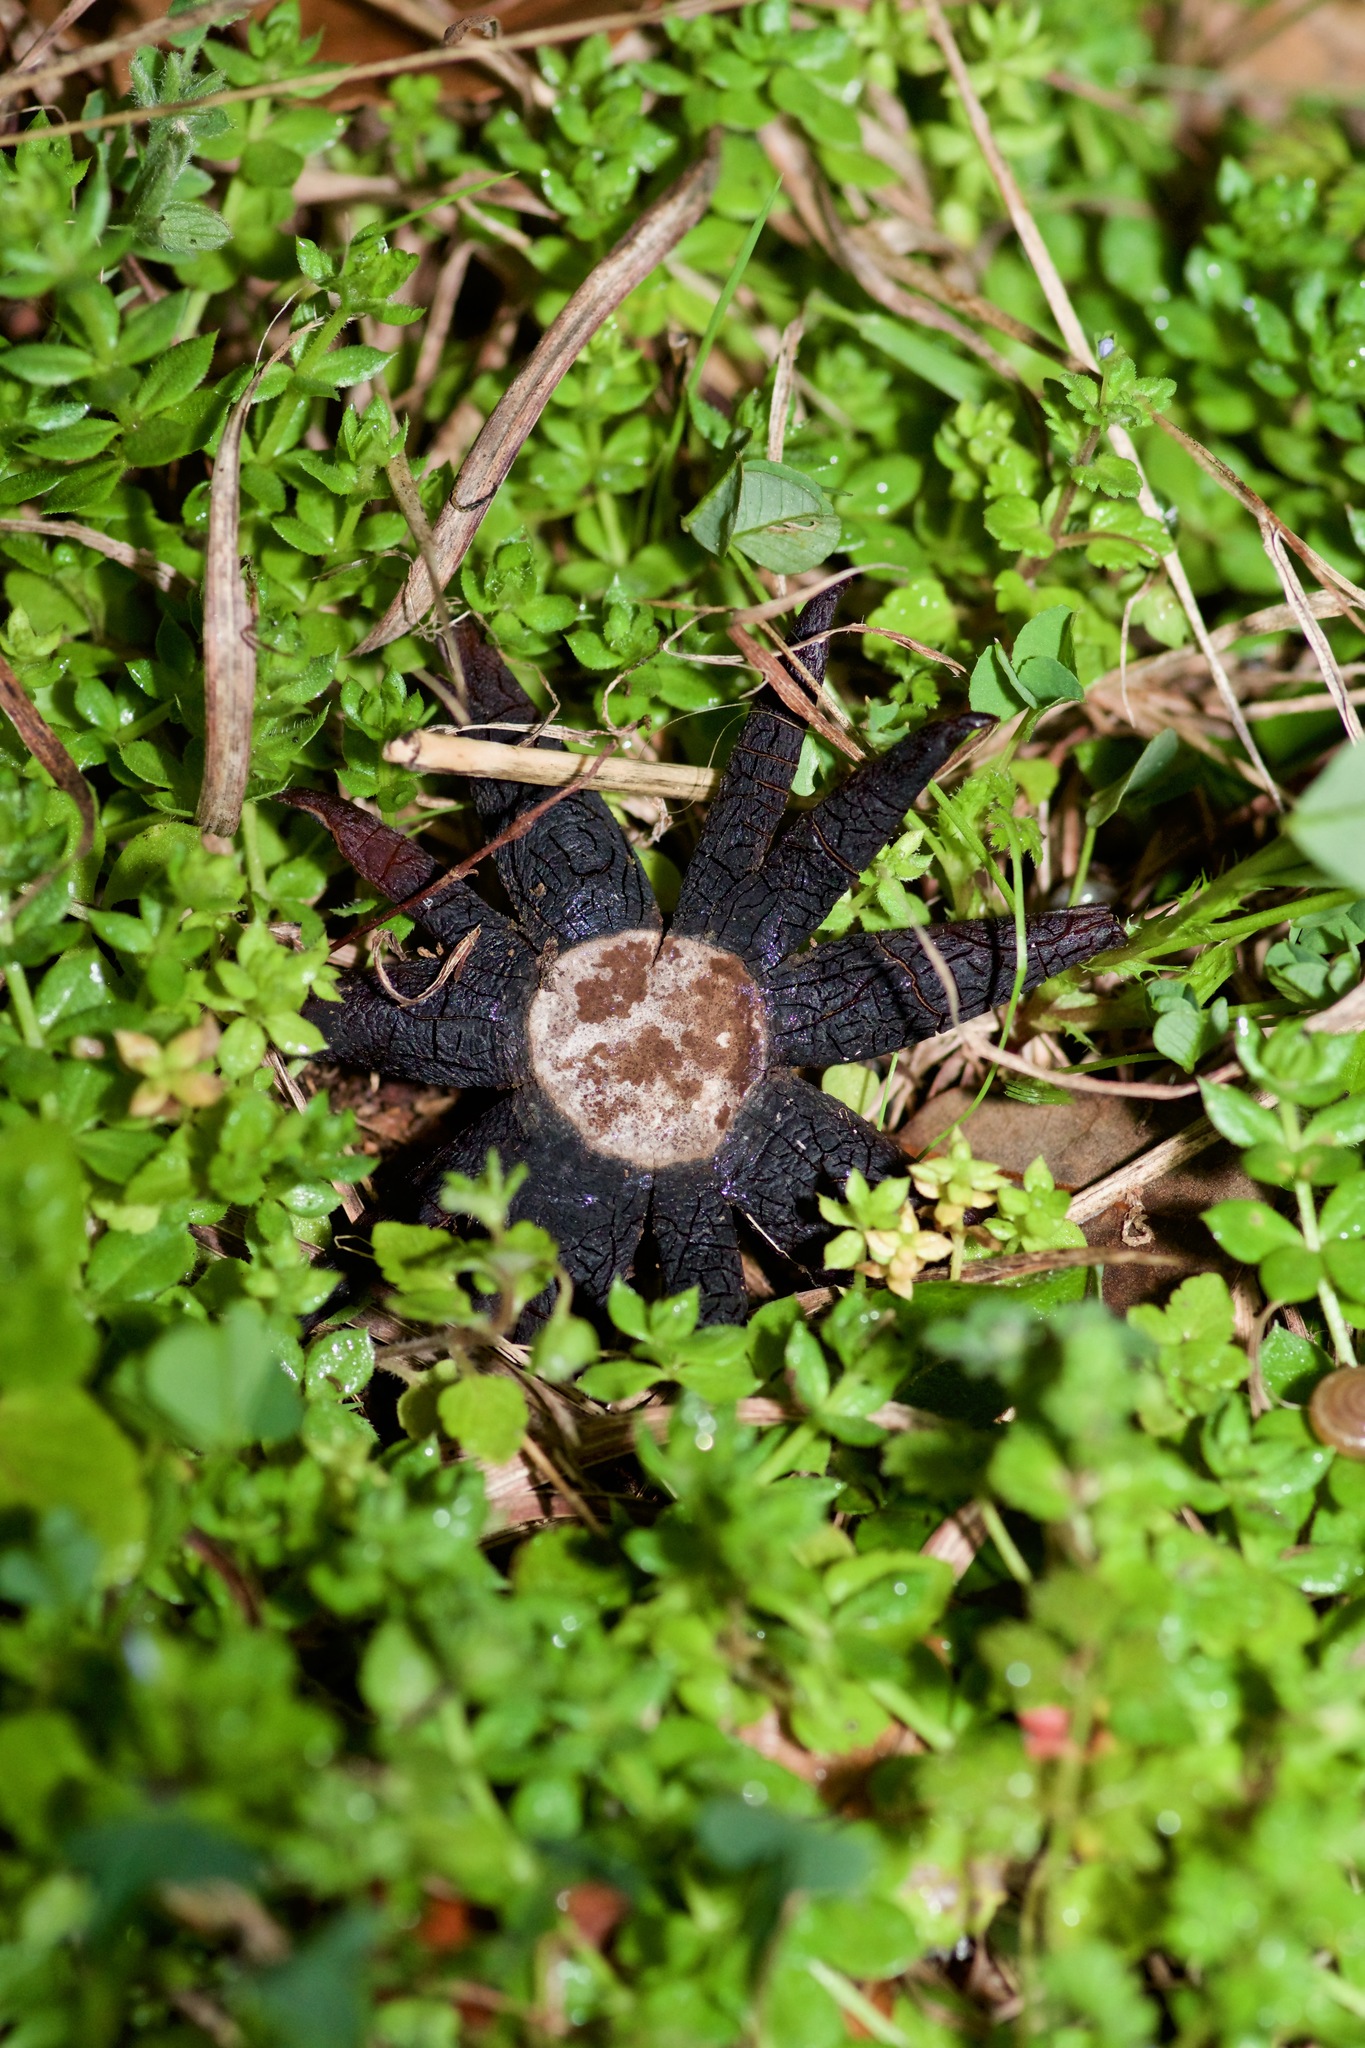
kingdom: Fungi
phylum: Basidiomycota
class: Agaricomycetes
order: Boletales
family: Diplocystidiaceae
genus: Astraeus
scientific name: Astraeus morganii
